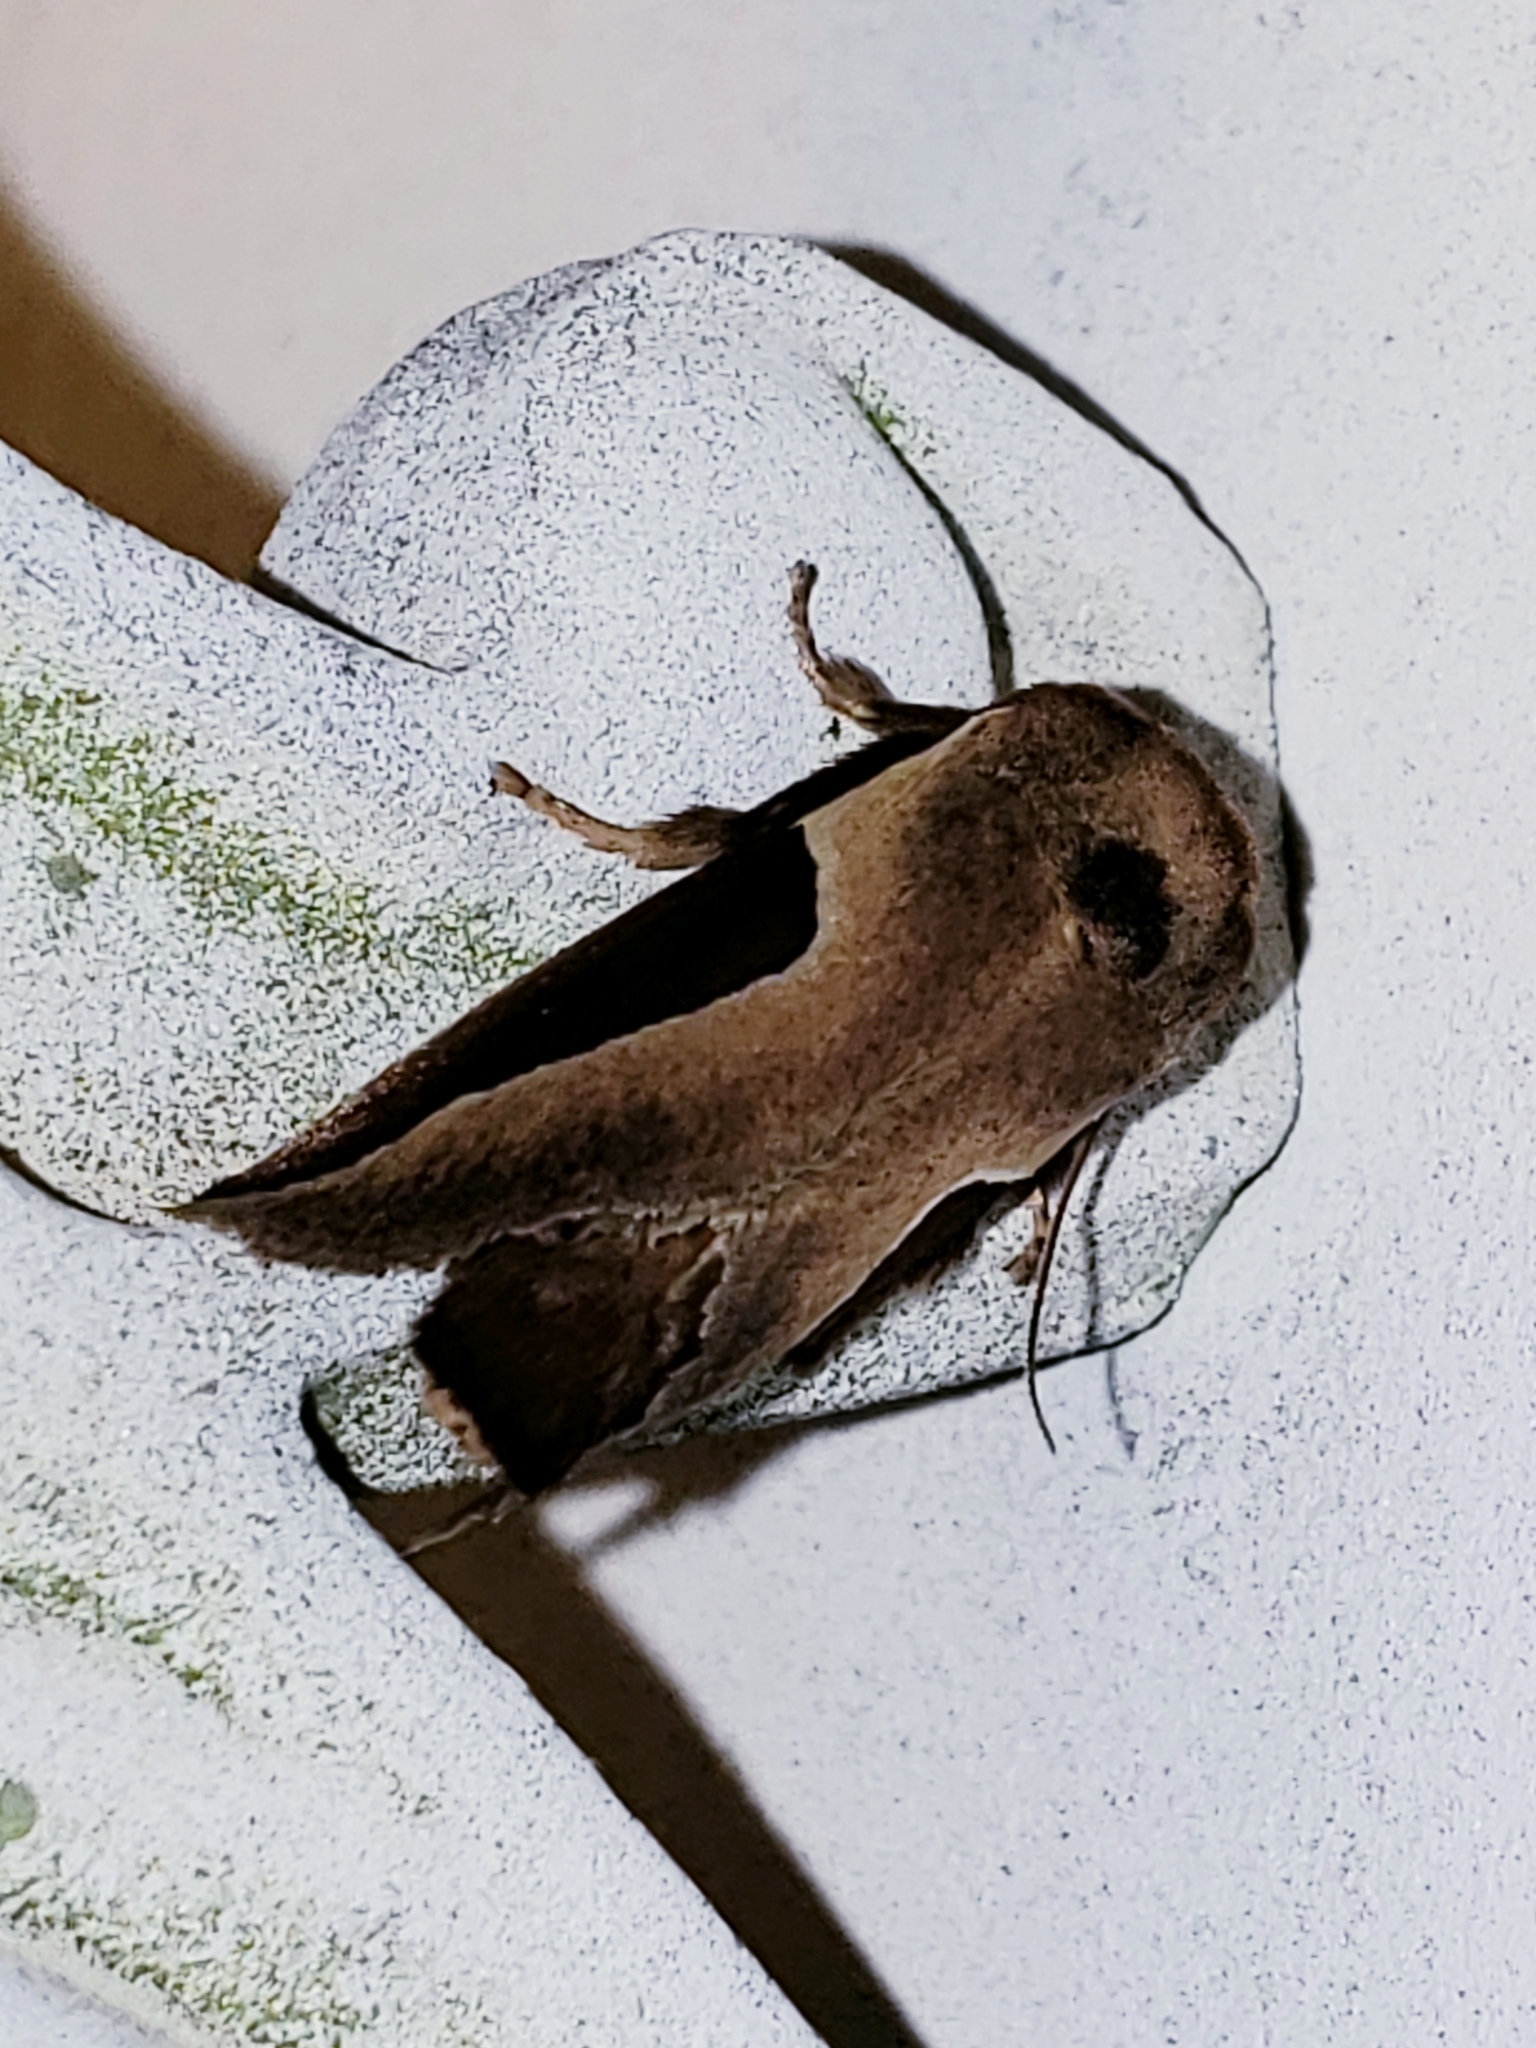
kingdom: Animalia
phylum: Arthropoda
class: Insecta
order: Lepidoptera
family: Limacodidae
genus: Prolimacodes
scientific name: Prolimacodes badia
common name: Skiff moth
